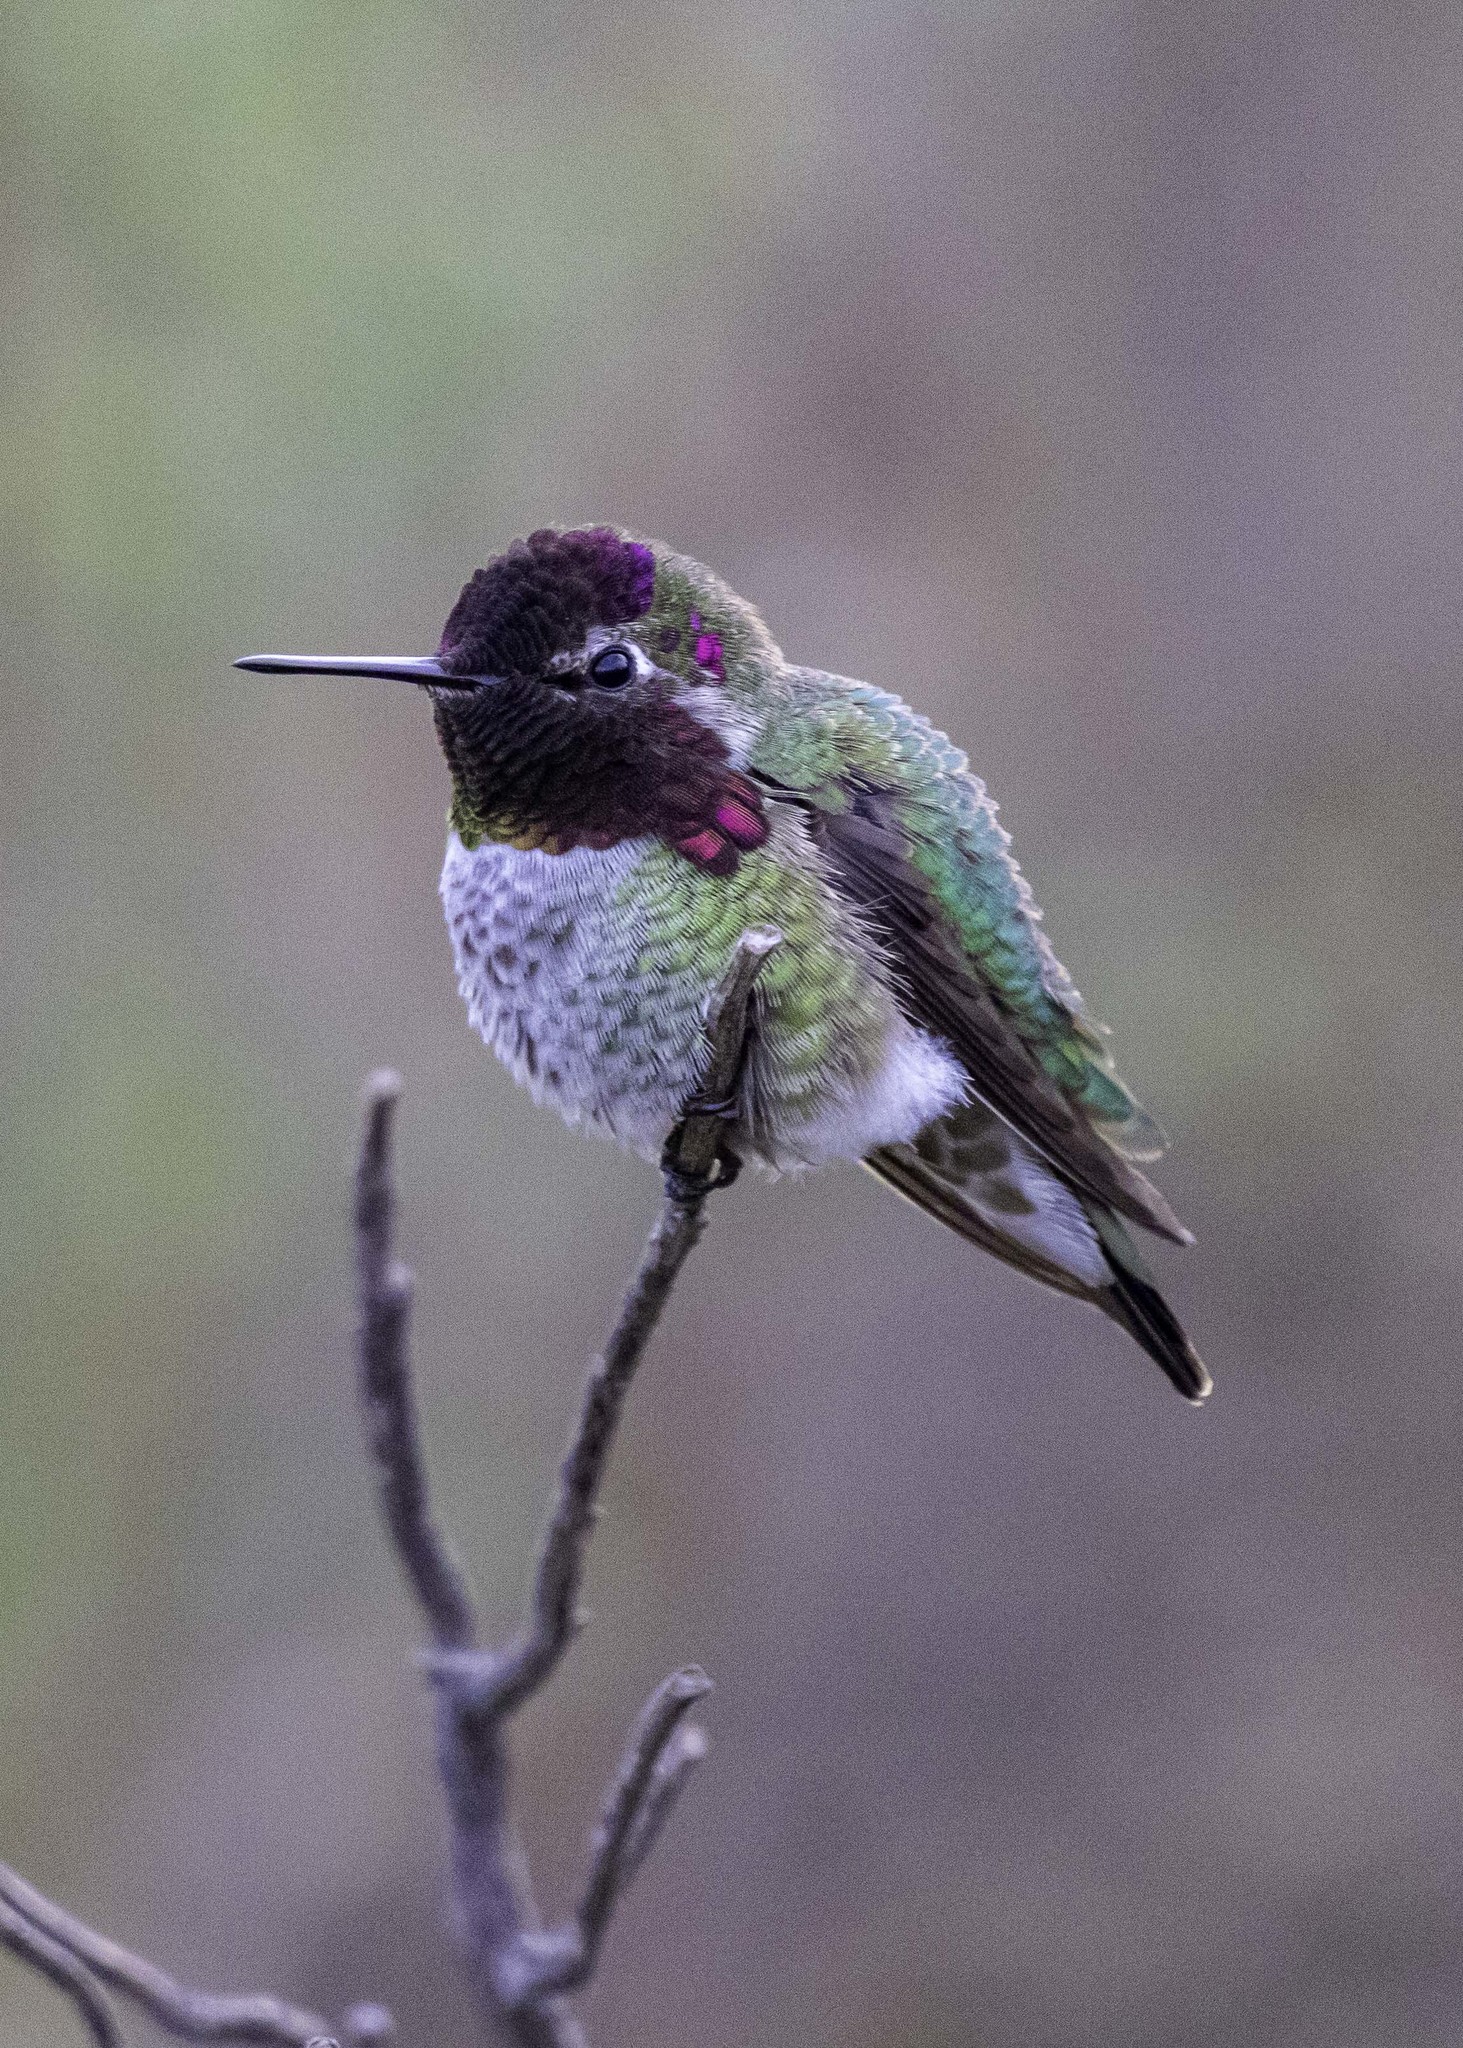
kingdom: Animalia
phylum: Chordata
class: Aves
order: Apodiformes
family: Trochilidae
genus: Calypte
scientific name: Calypte anna
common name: Anna's hummingbird
